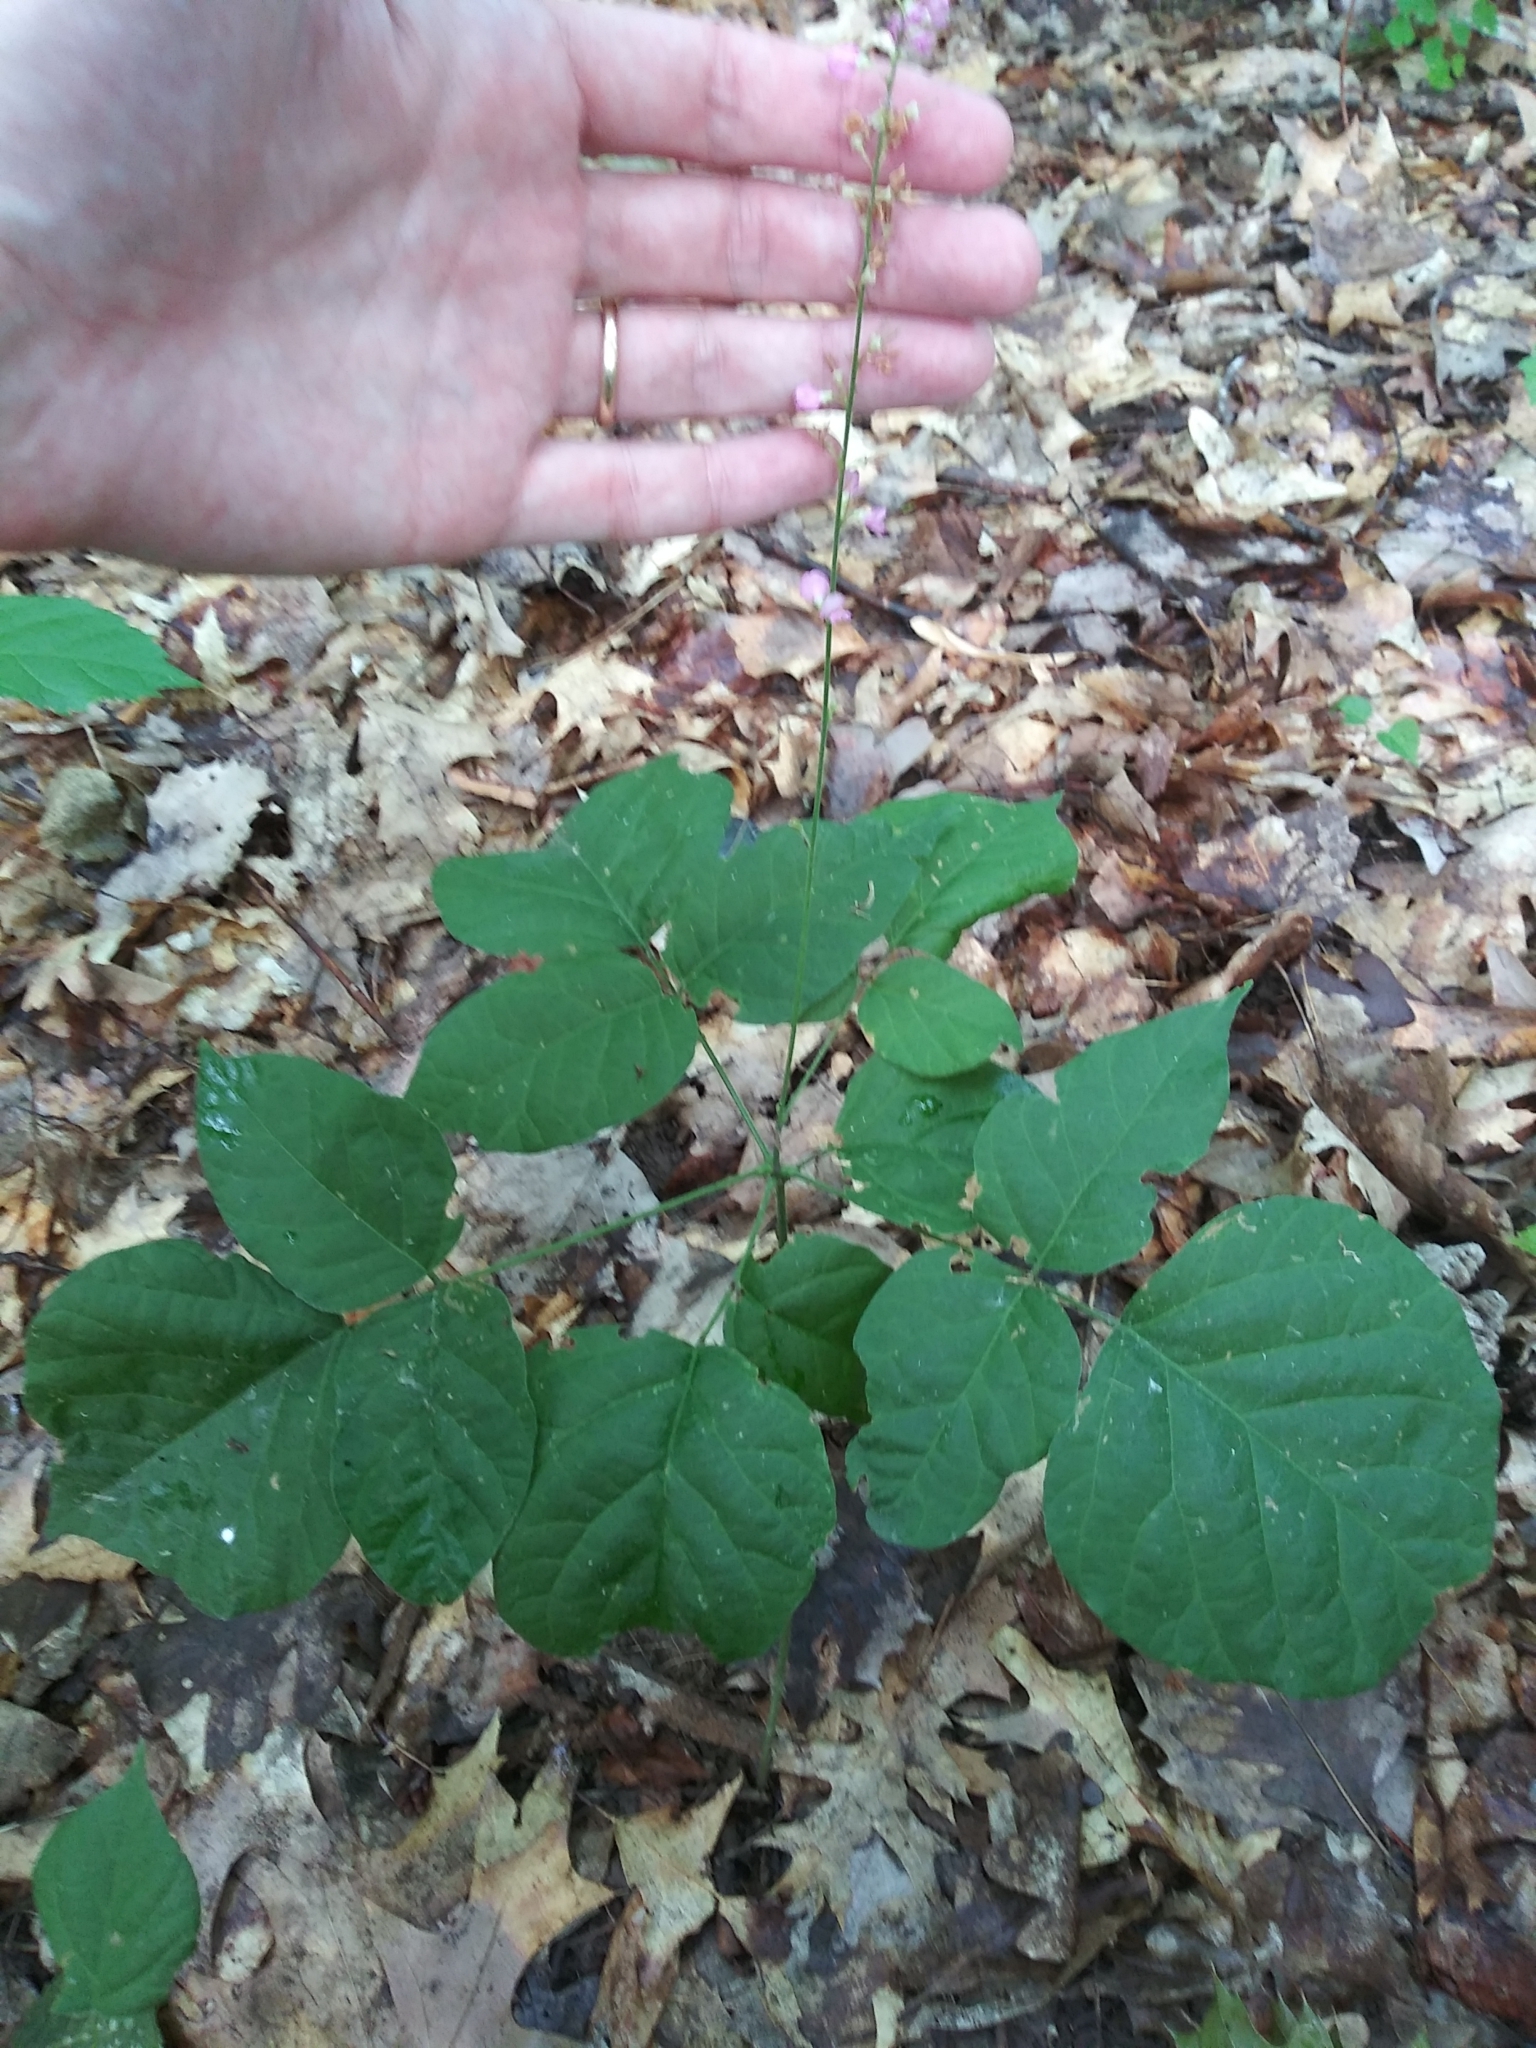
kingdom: Plantae
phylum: Tracheophyta
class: Magnoliopsida
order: Fabales
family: Fabaceae
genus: Hylodesmum
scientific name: Hylodesmum glutinosum
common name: Clustered-leaved tick-trefoil
